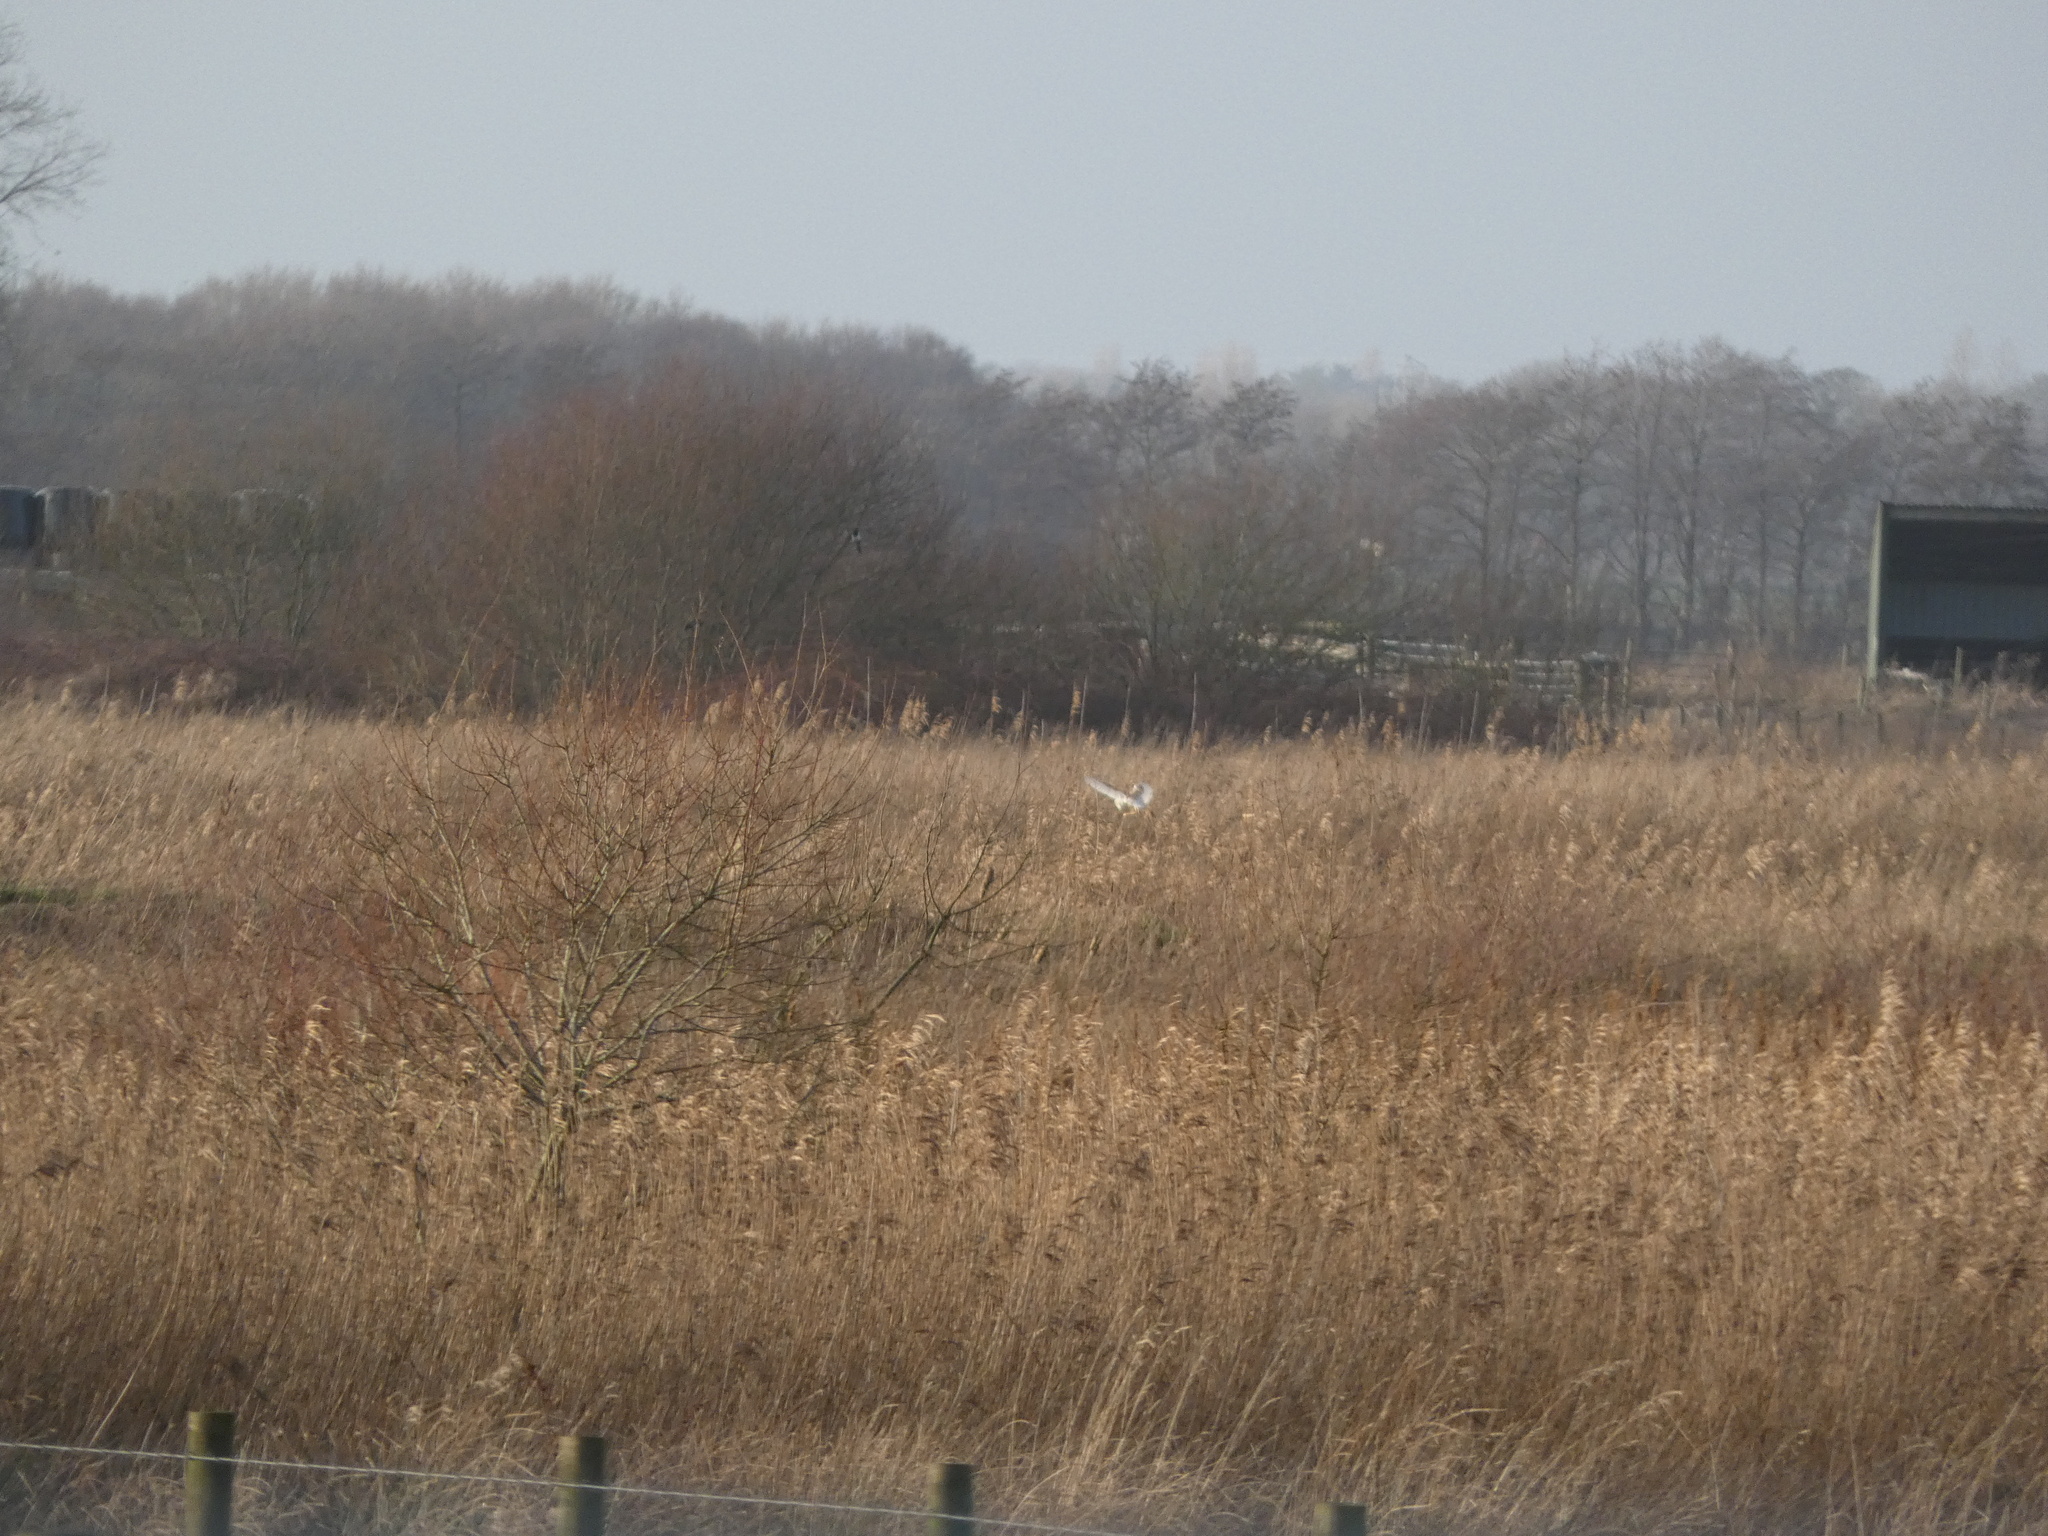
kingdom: Animalia
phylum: Chordata
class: Aves
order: Strigiformes
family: Tytonidae
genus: Tyto
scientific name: Tyto alba
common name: Barn owl
